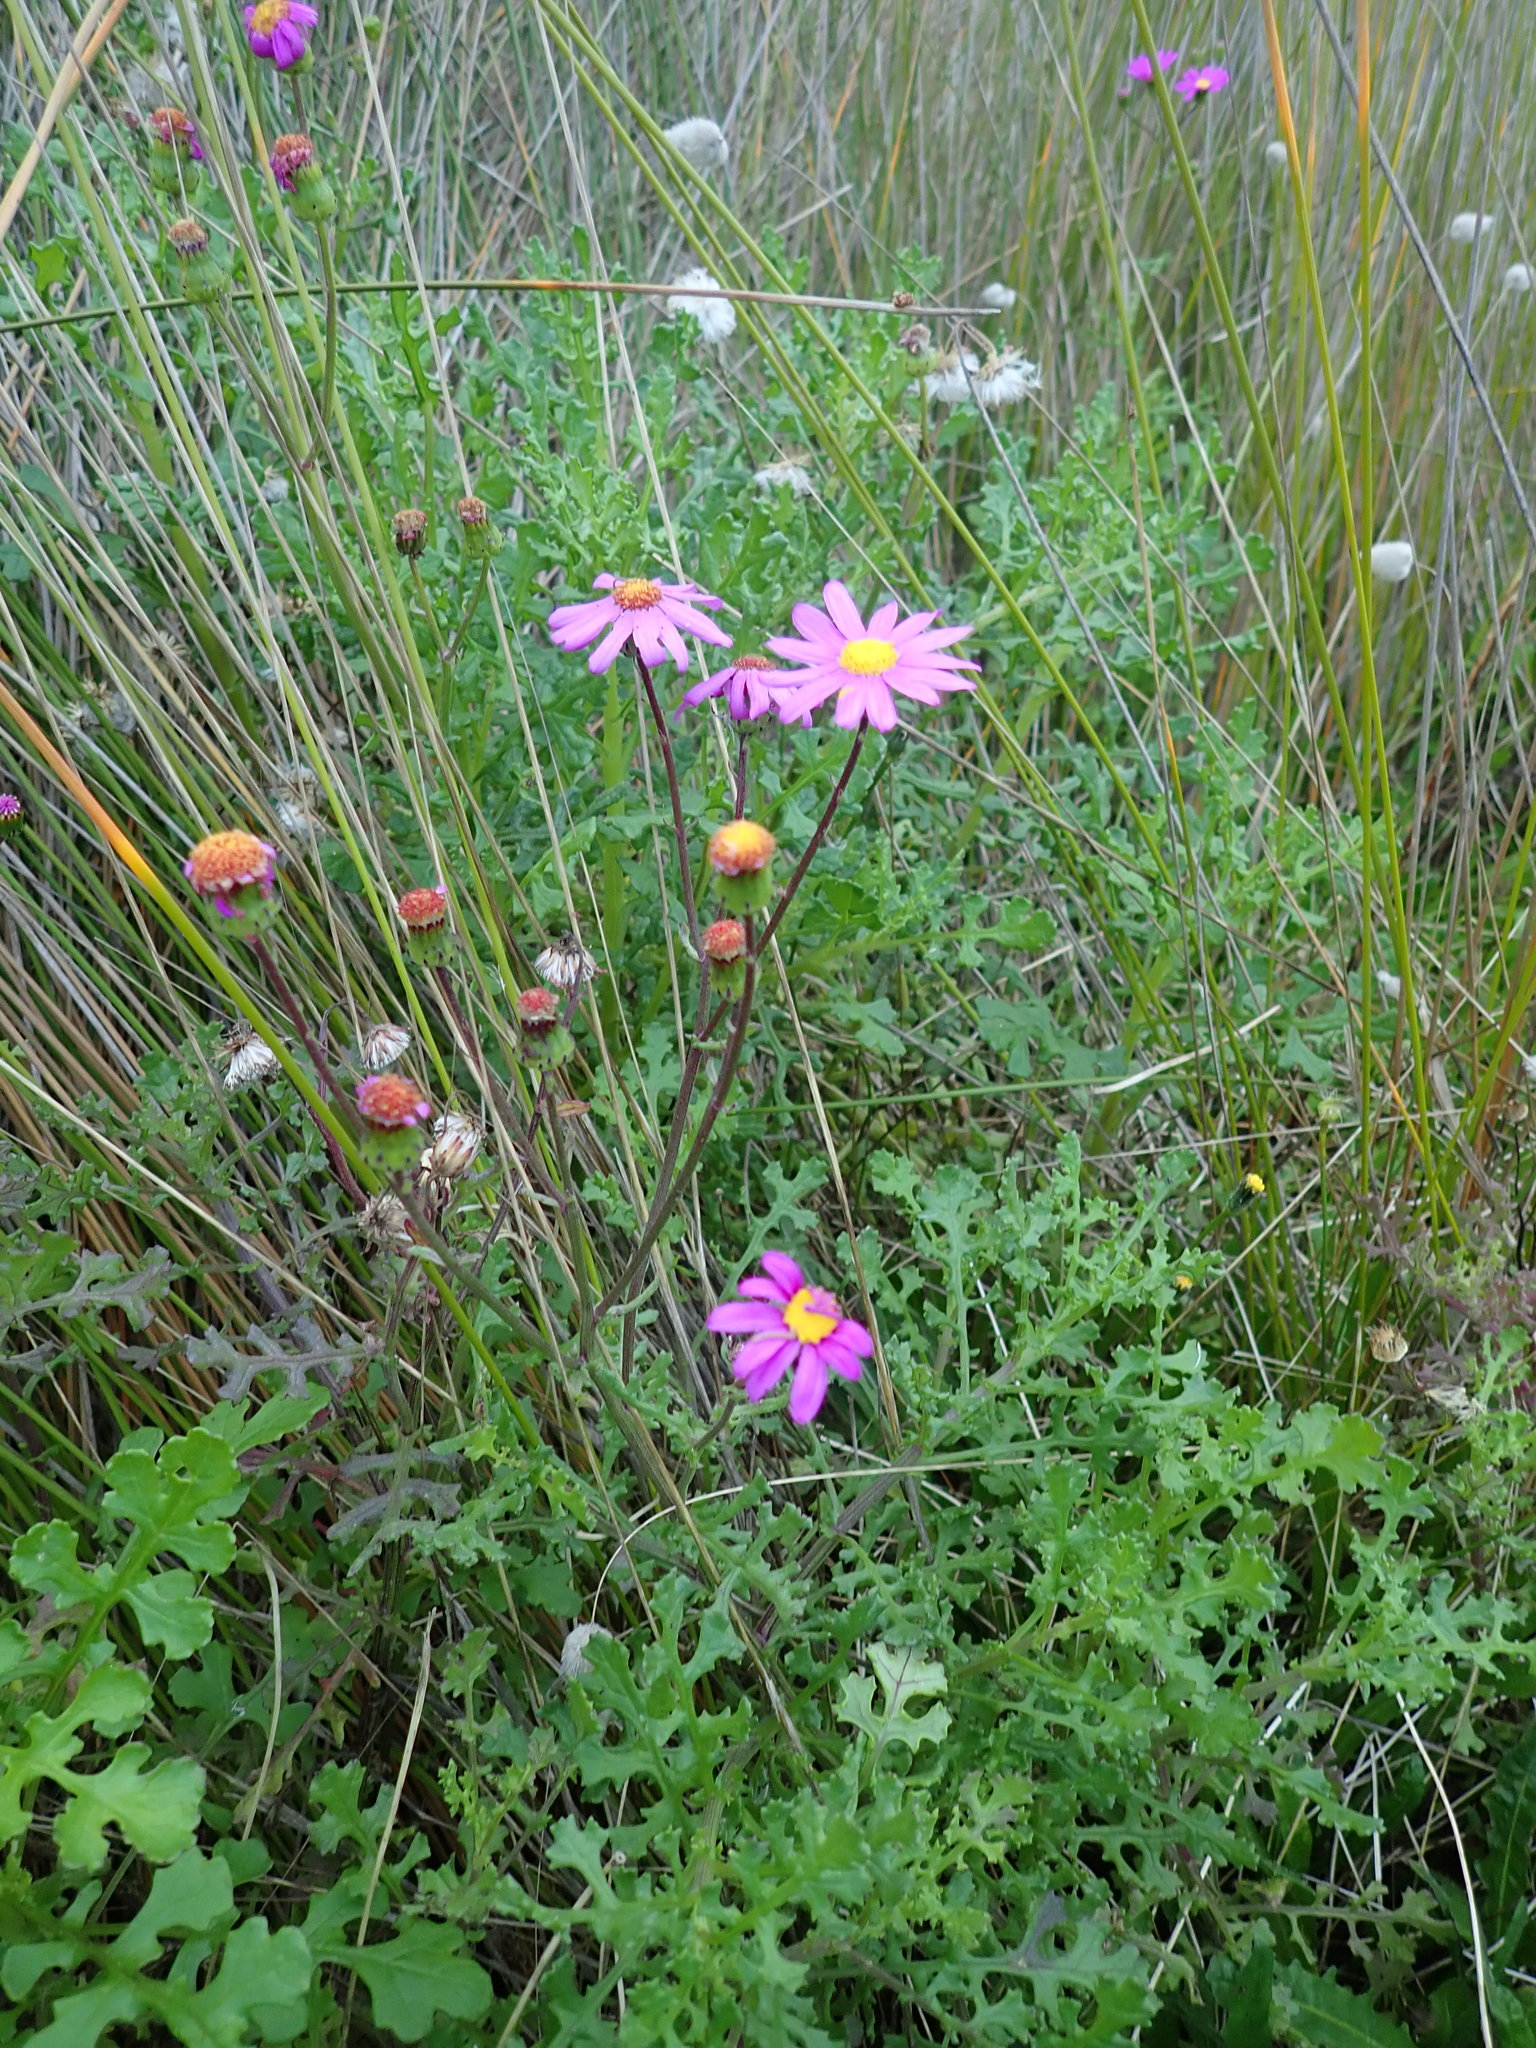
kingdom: Plantae
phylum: Tracheophyta
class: Magnoliopsida
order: Asterales
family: Asteraceae
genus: Senecio
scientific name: Senecio elegans
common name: Purple groundsel
